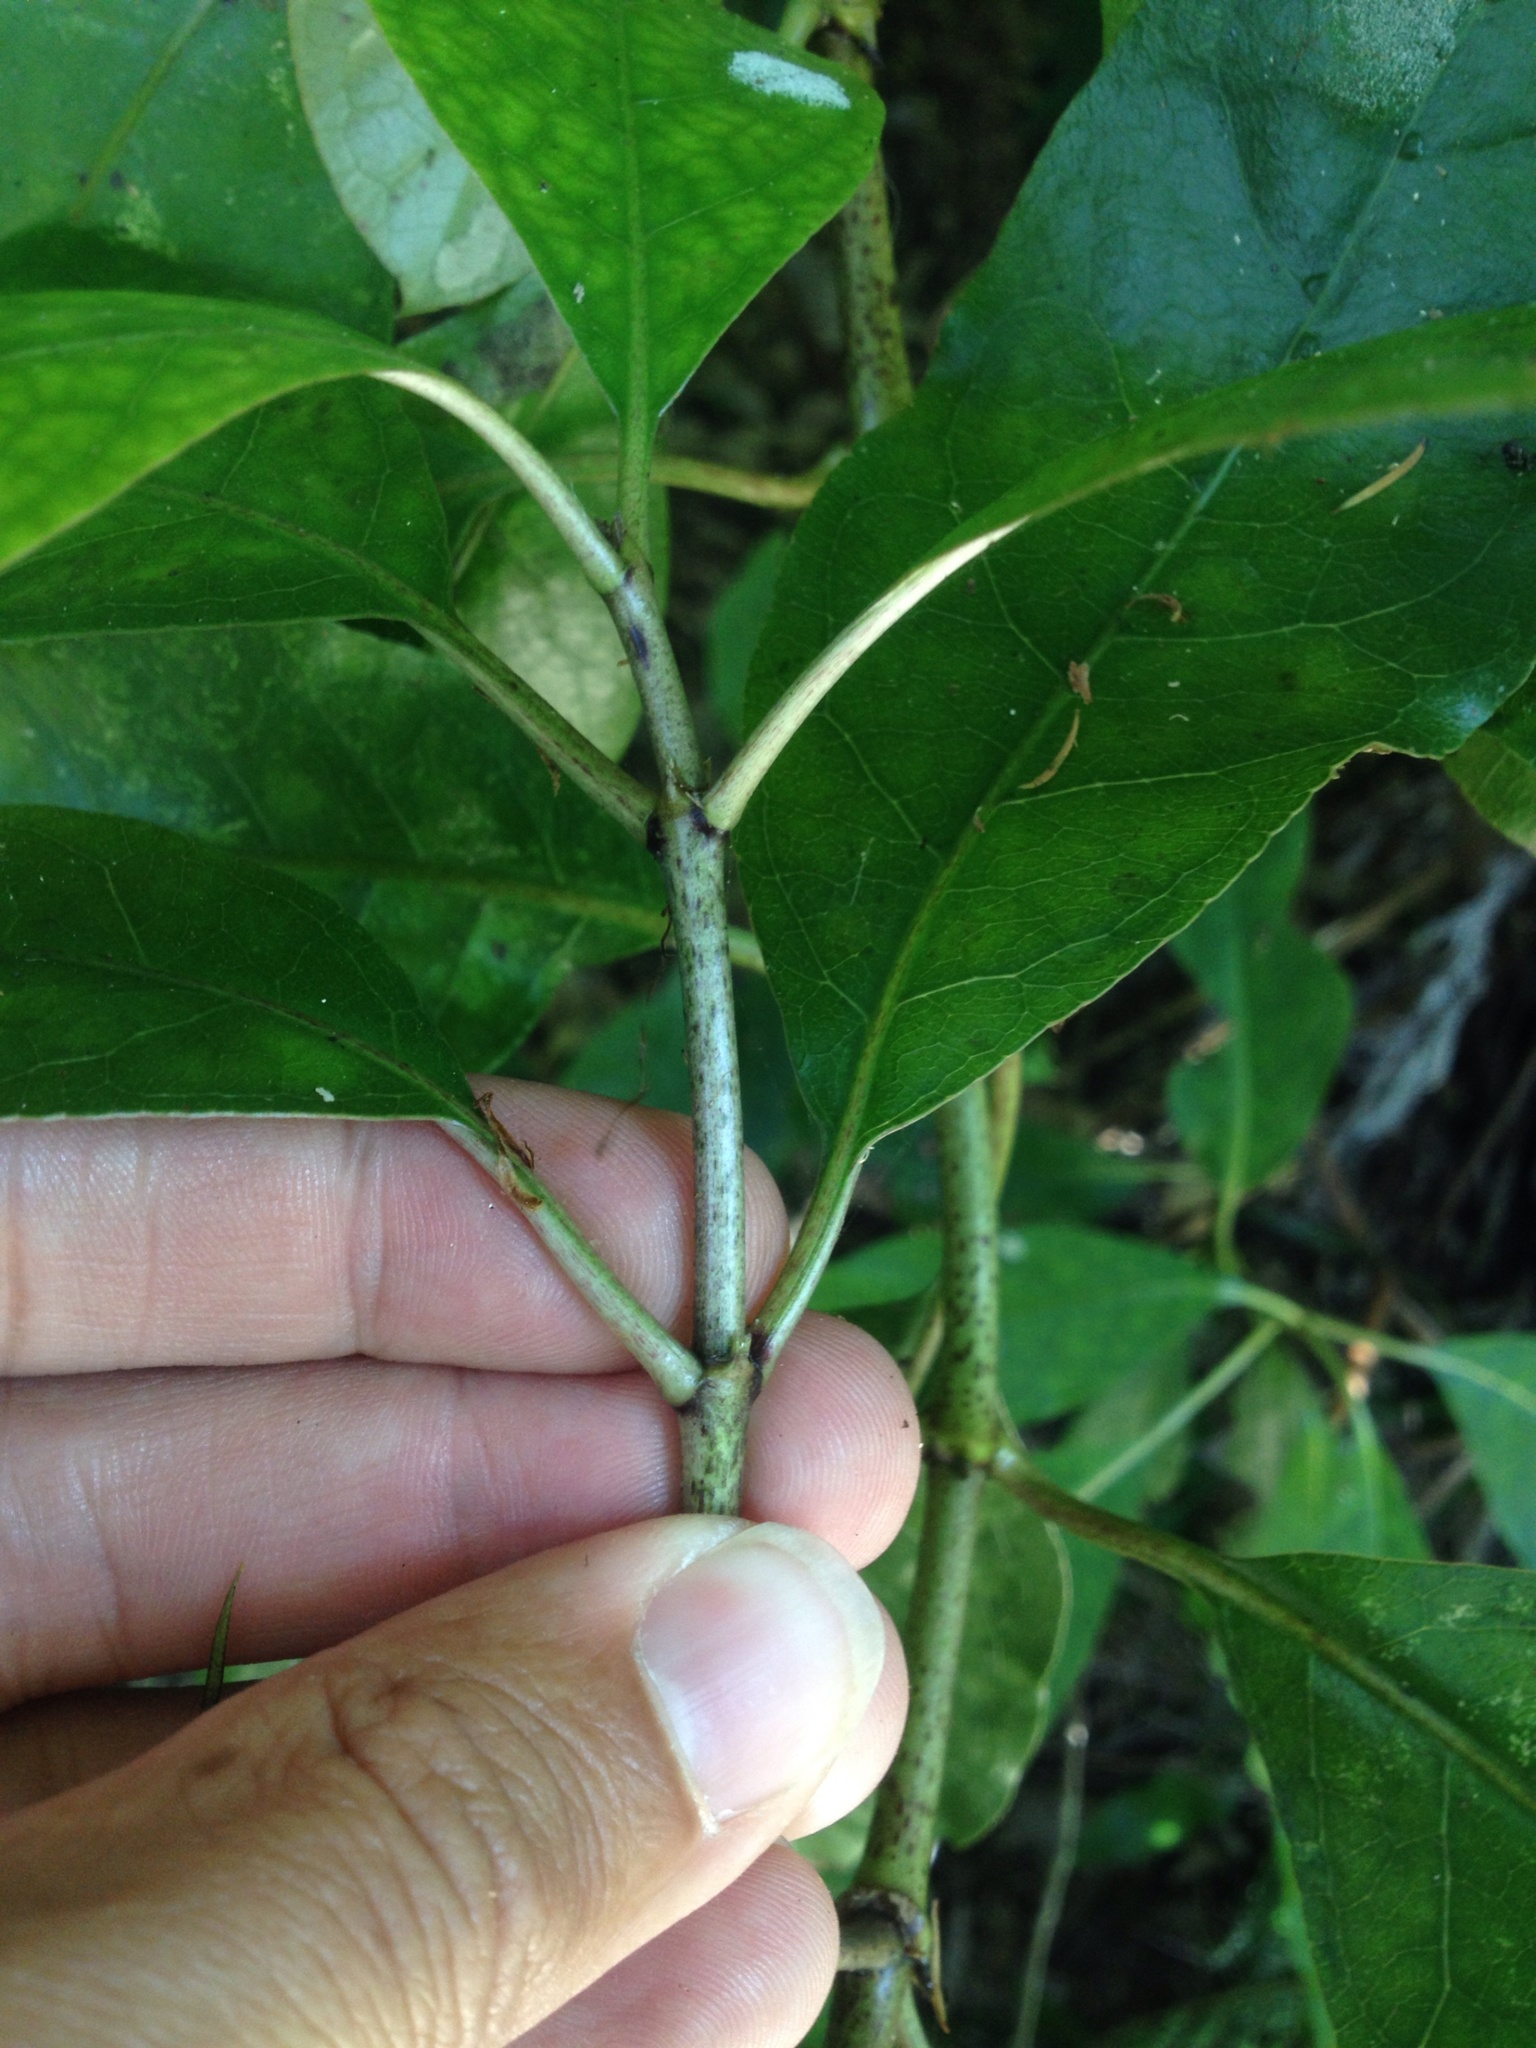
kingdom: Plantae
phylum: Tracheophyta
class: Magnoliopsida
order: Gentianales
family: Rubiaceae
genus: Coprosma
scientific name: Coprosma autumnalis
